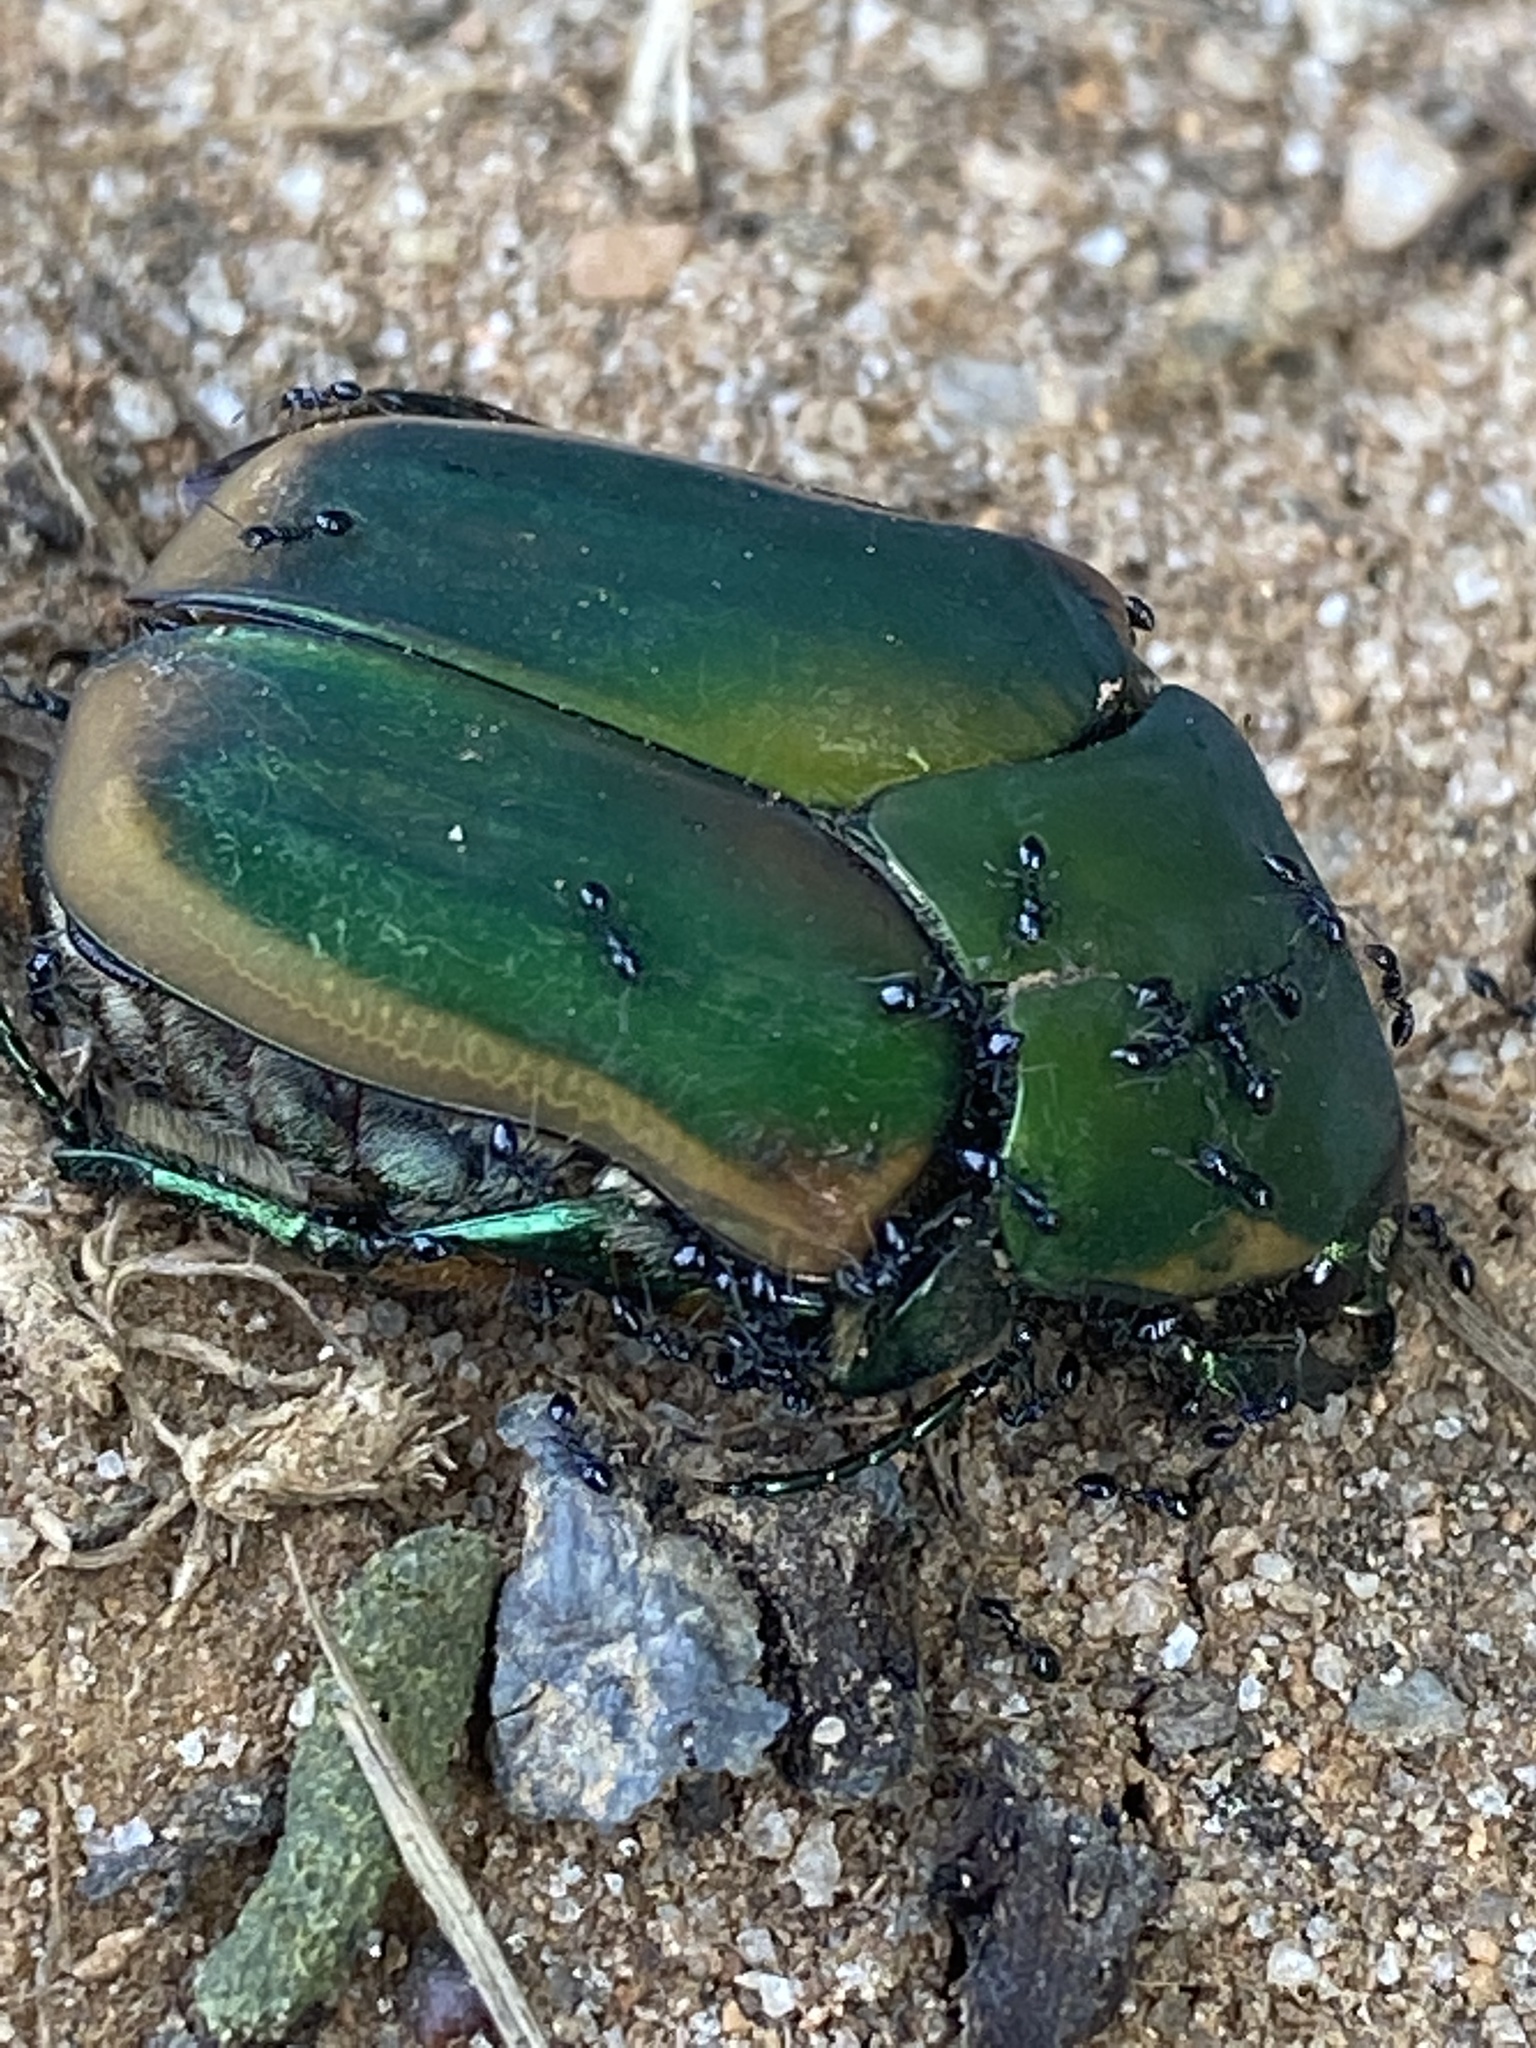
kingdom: Animalia
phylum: Arthropoda
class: Insecta
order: Coleoptera
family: Scarabaeidae
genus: Cotinis
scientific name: Cotinis nitida
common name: Common green june beetle
